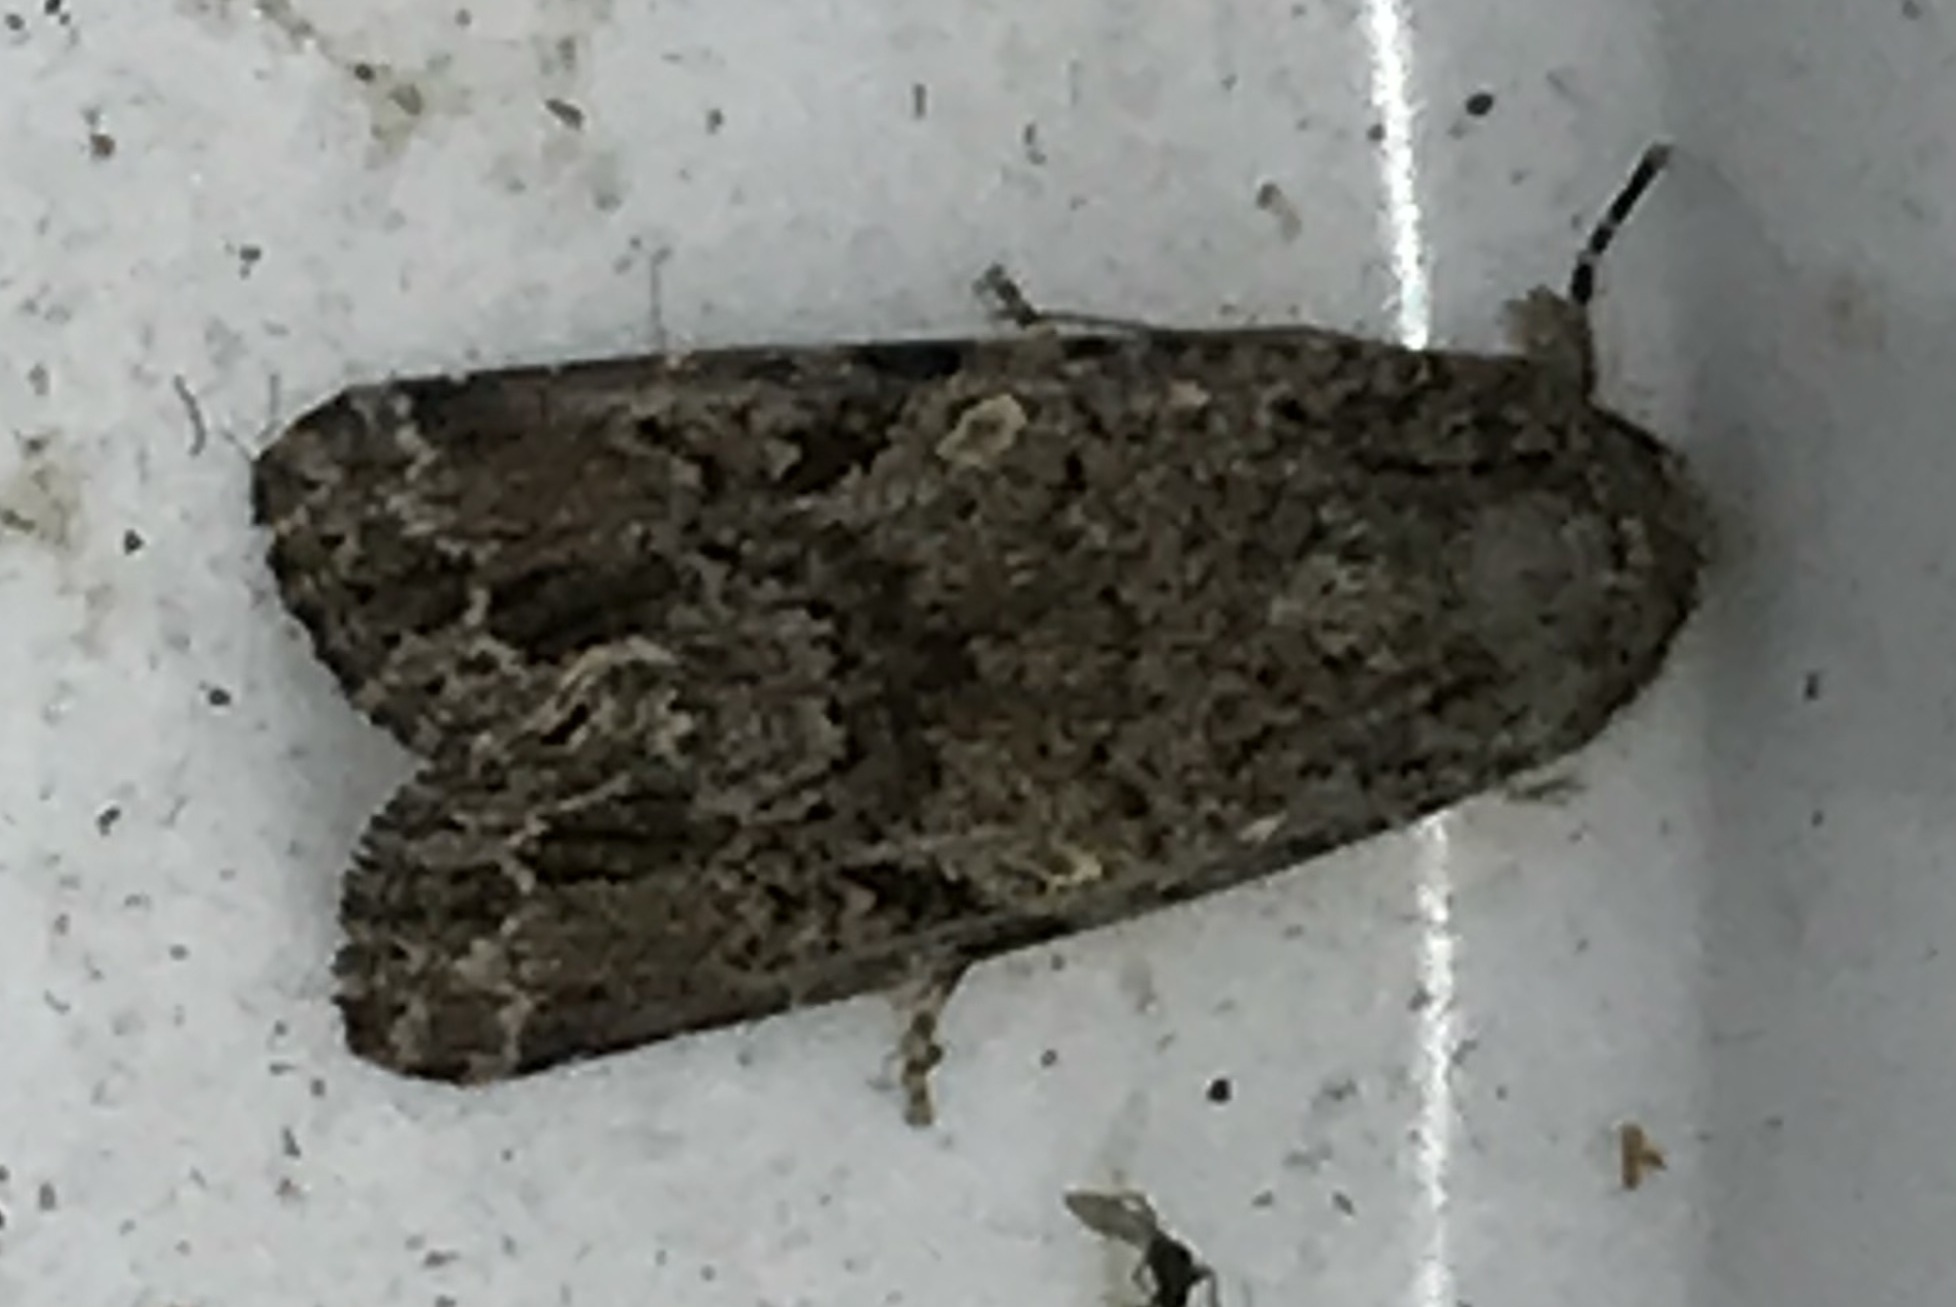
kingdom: Animalia
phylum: Arthropoda
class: Insecta
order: Lepidoptera
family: Noctuidae
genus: Spodoptera
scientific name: Spodoptera mauritia
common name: Lawn armyworm
